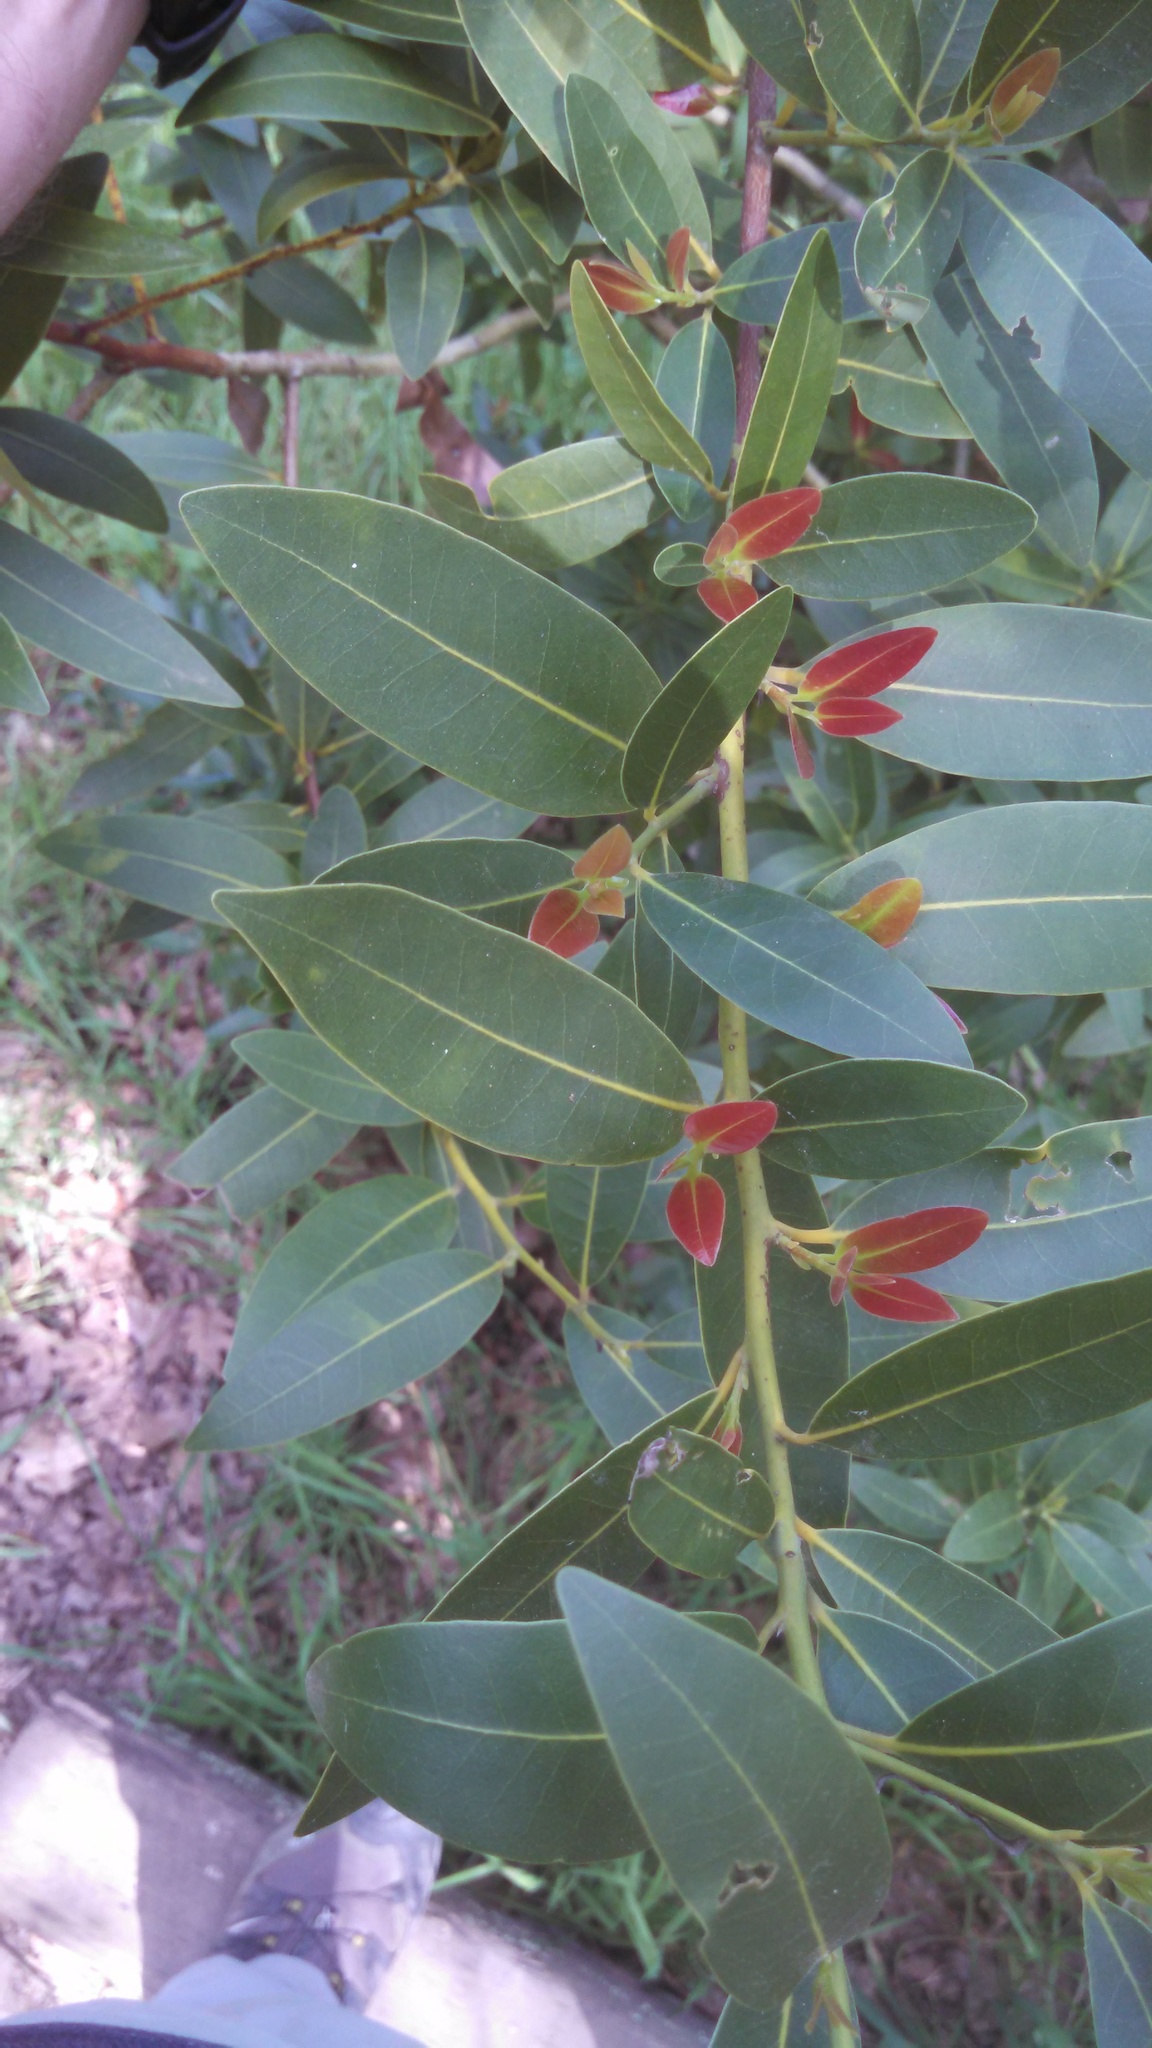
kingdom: Plantae
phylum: Tracheophyta
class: Magnoliopsida
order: Laurales
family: Lauraceae
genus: Umbellularia
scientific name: Umbellularia californica
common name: California bay
